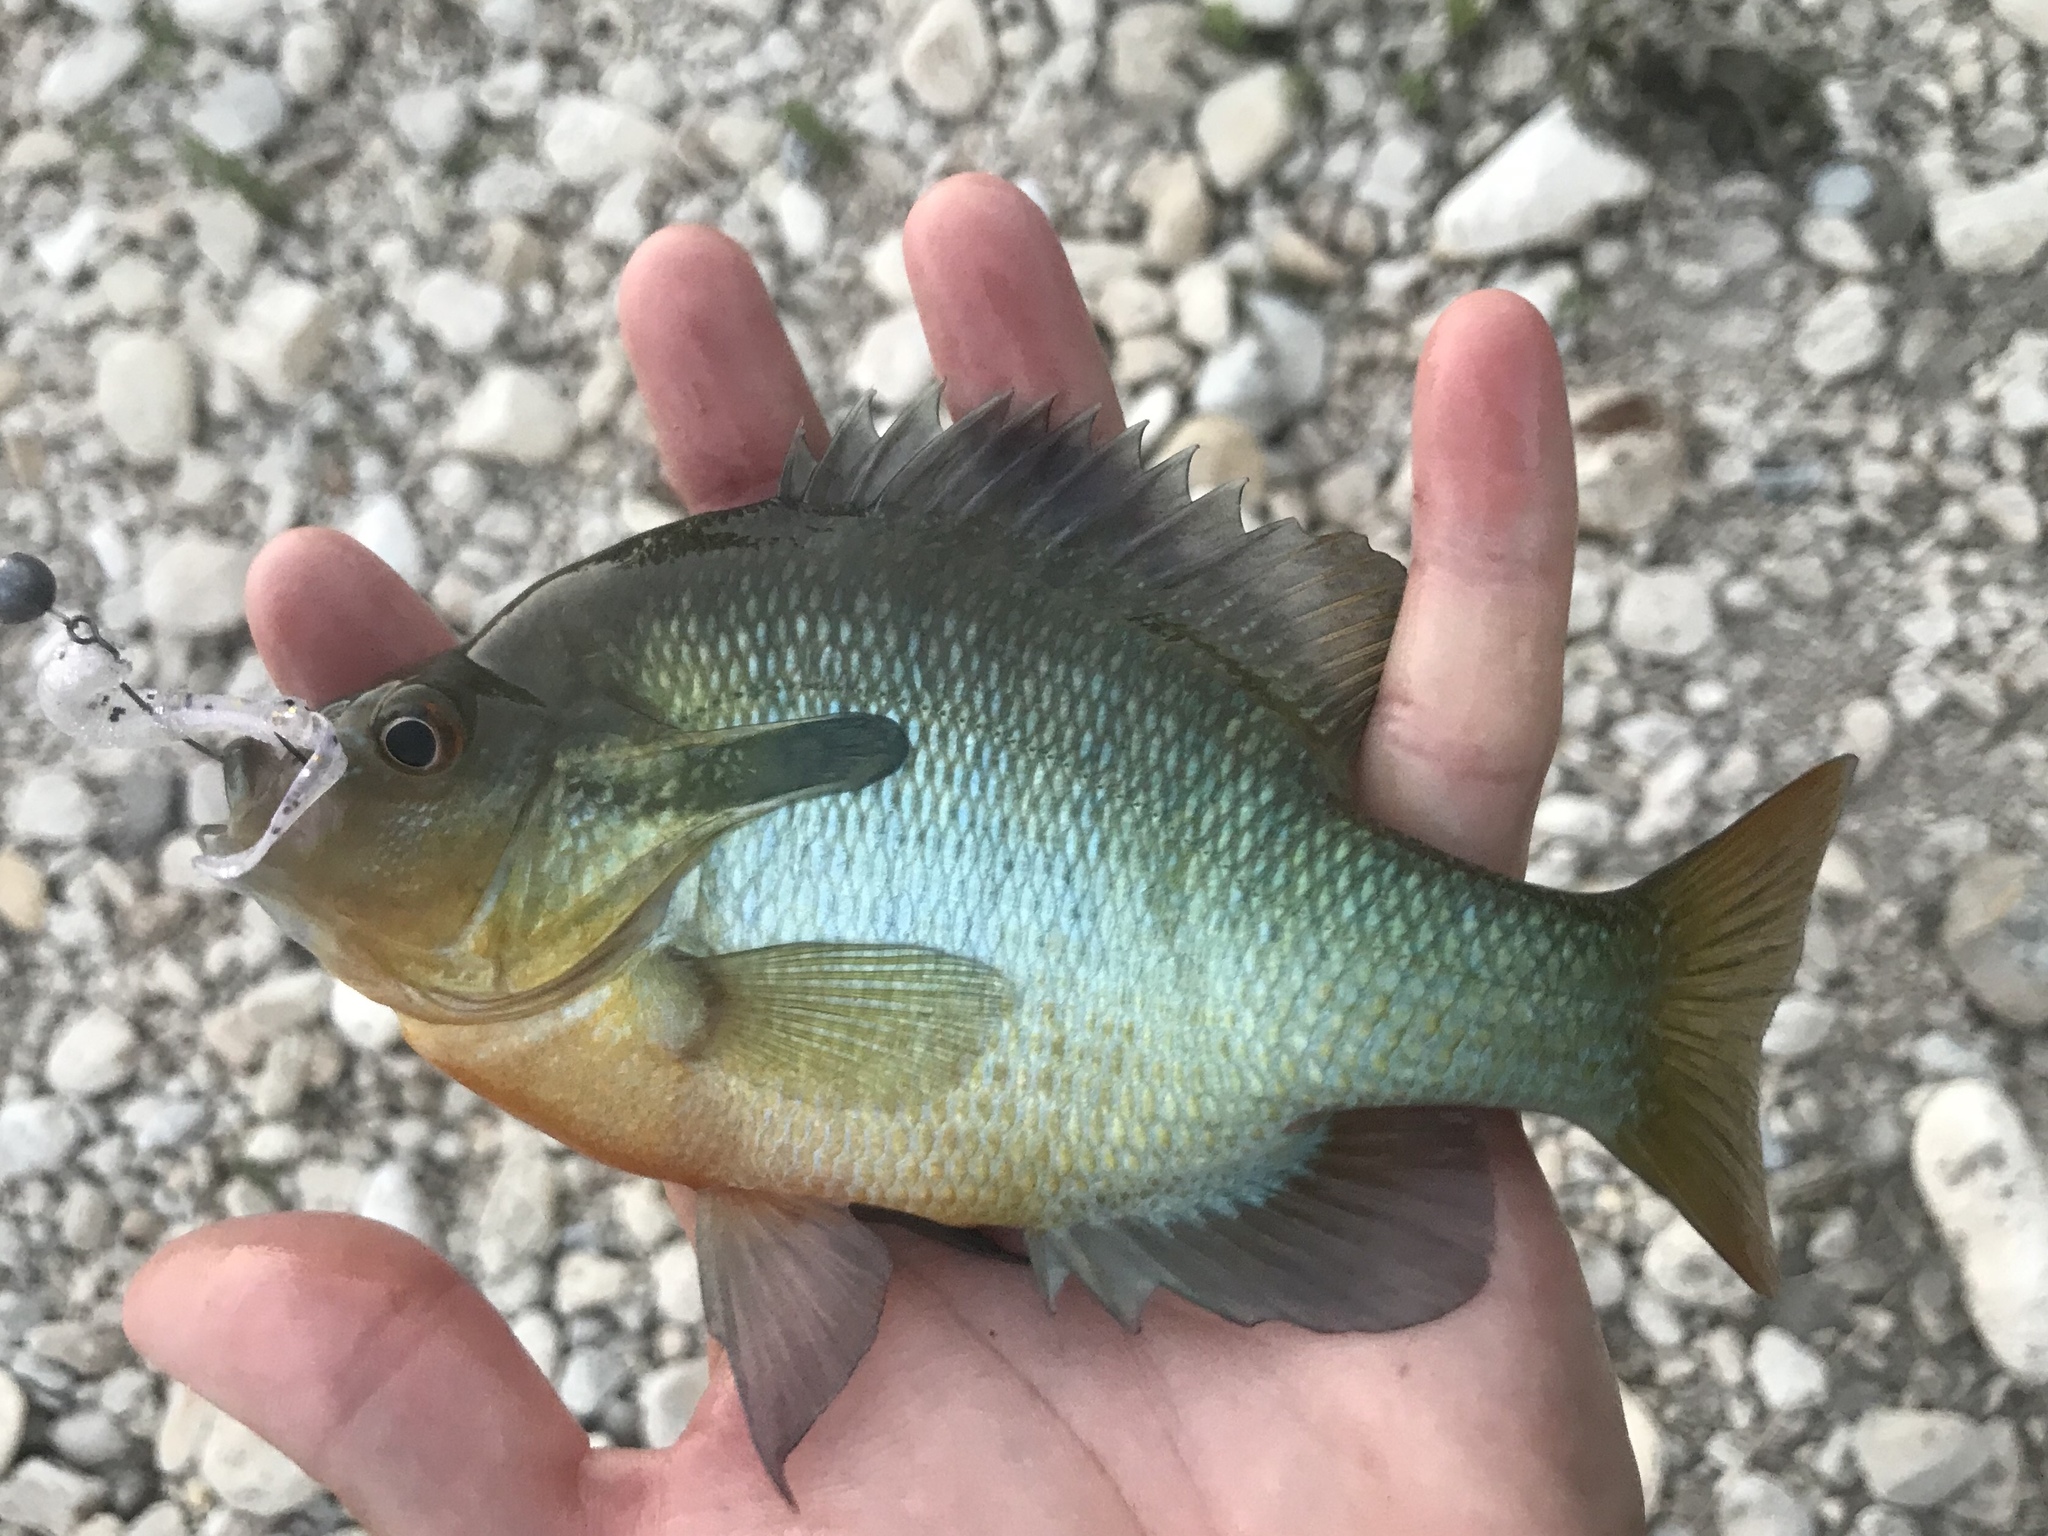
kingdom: Animalia
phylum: Chordata
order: Perciformes
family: Centrarchidae
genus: Lepomis
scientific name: Lepomis auritus
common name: Redbreast sunfish
